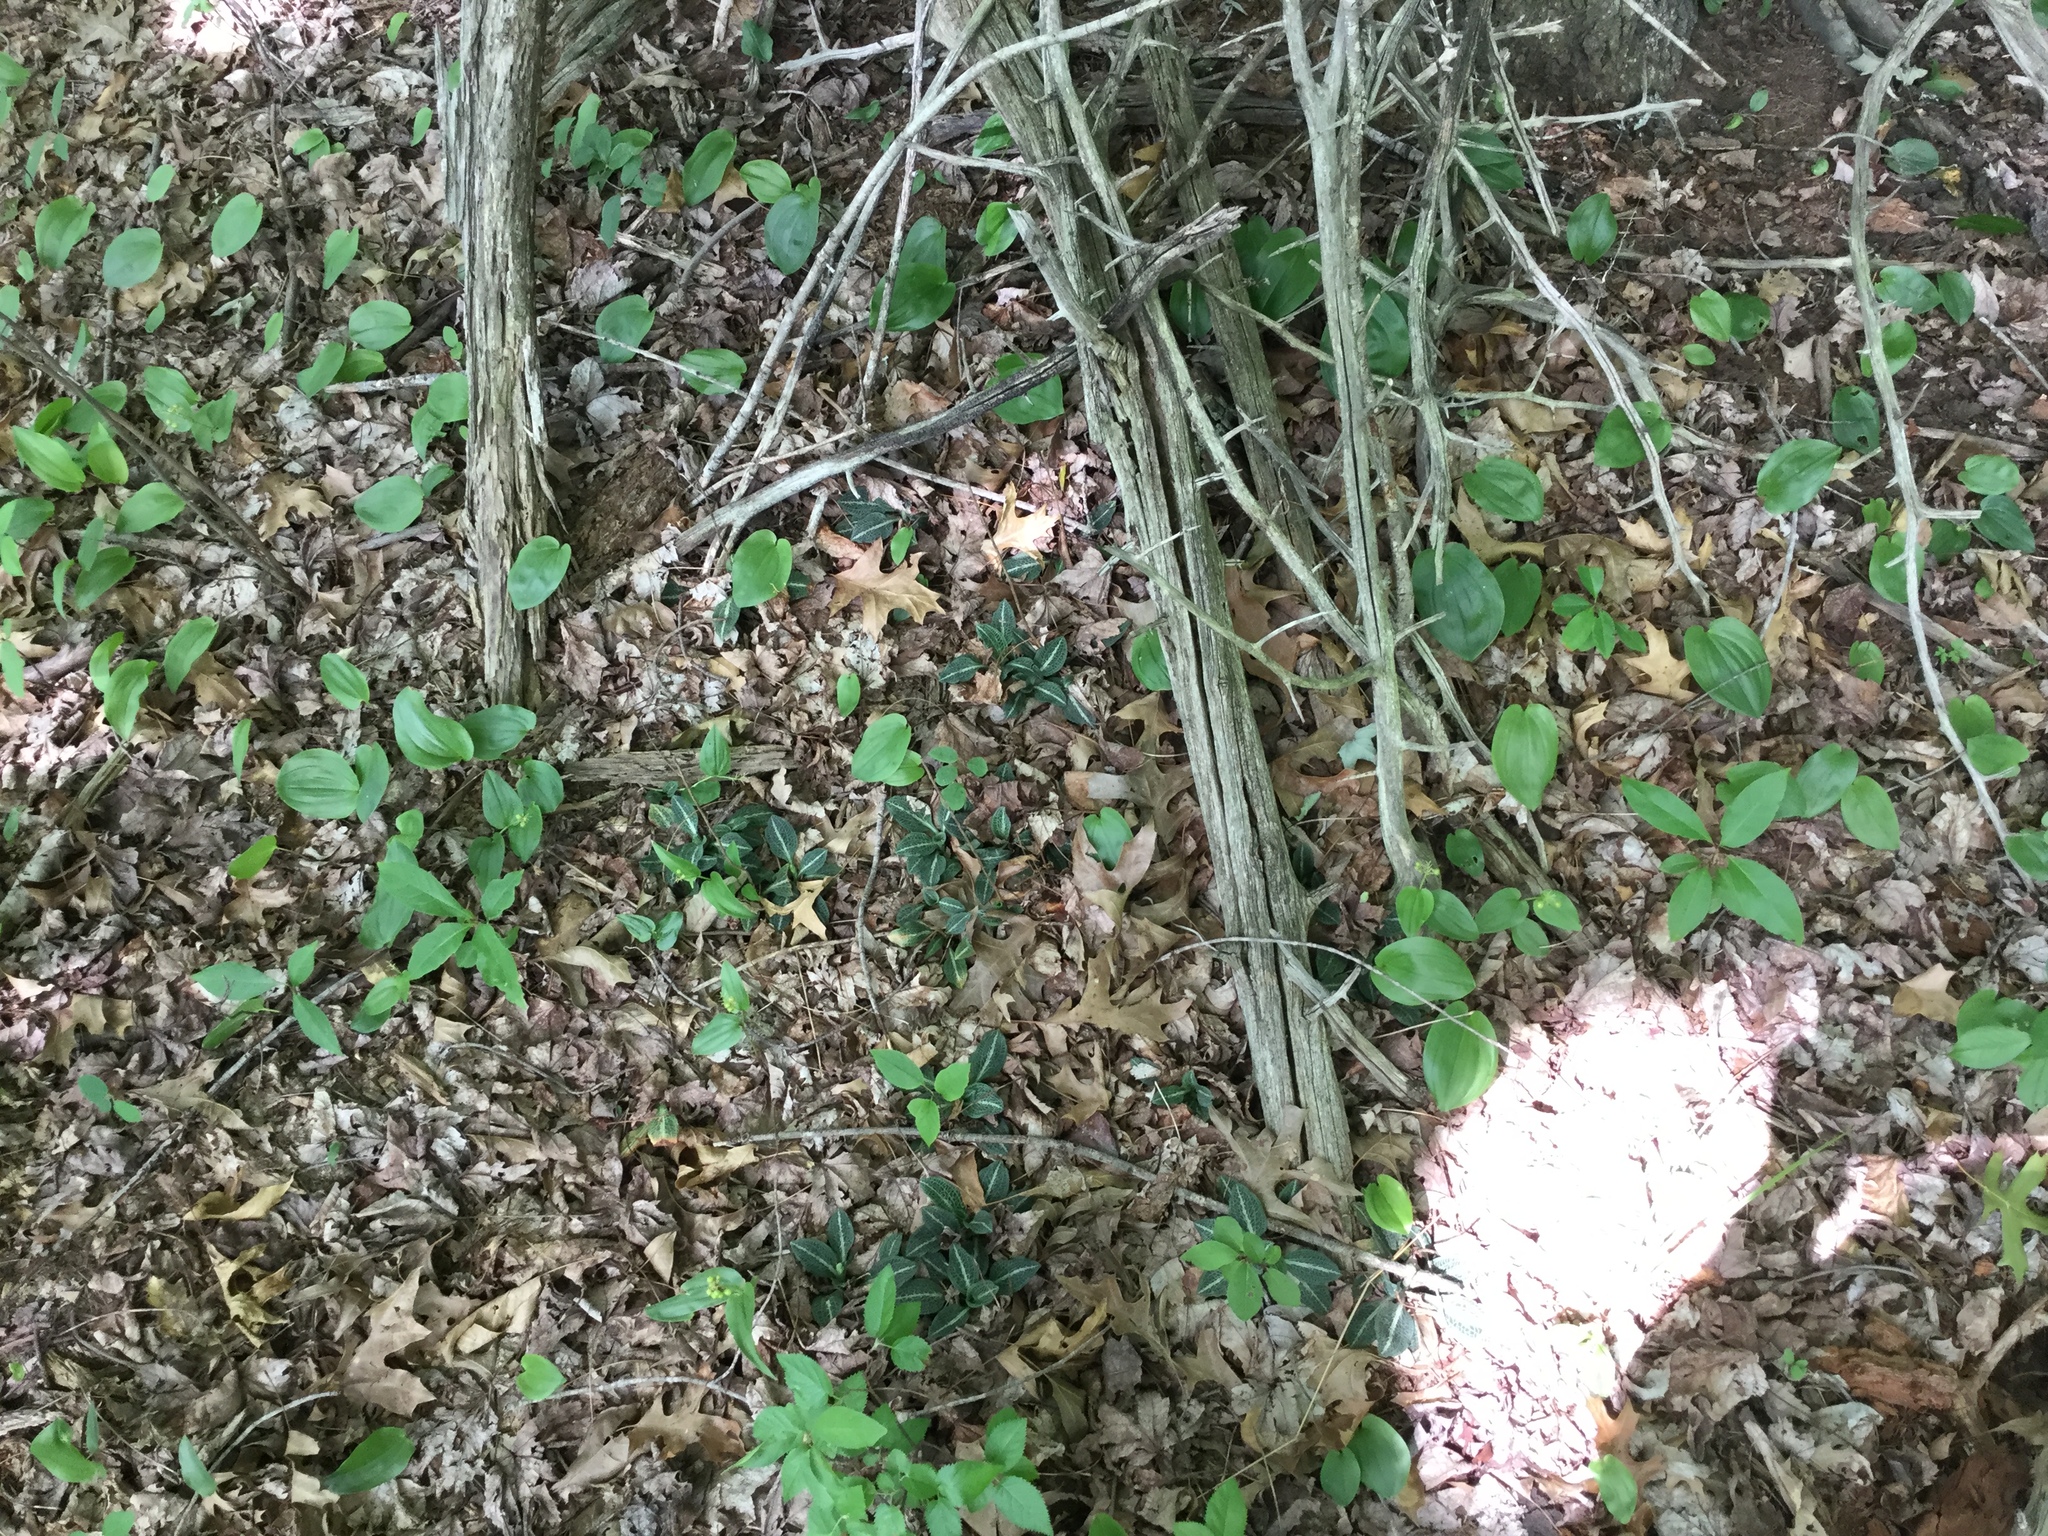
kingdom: Plantae
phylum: Tracheophyta
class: Liliopsida
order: Asparagales
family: Orchidaceae
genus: Goodyera
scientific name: Goodyera pubescens
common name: Downy rattlesnake-plantain
